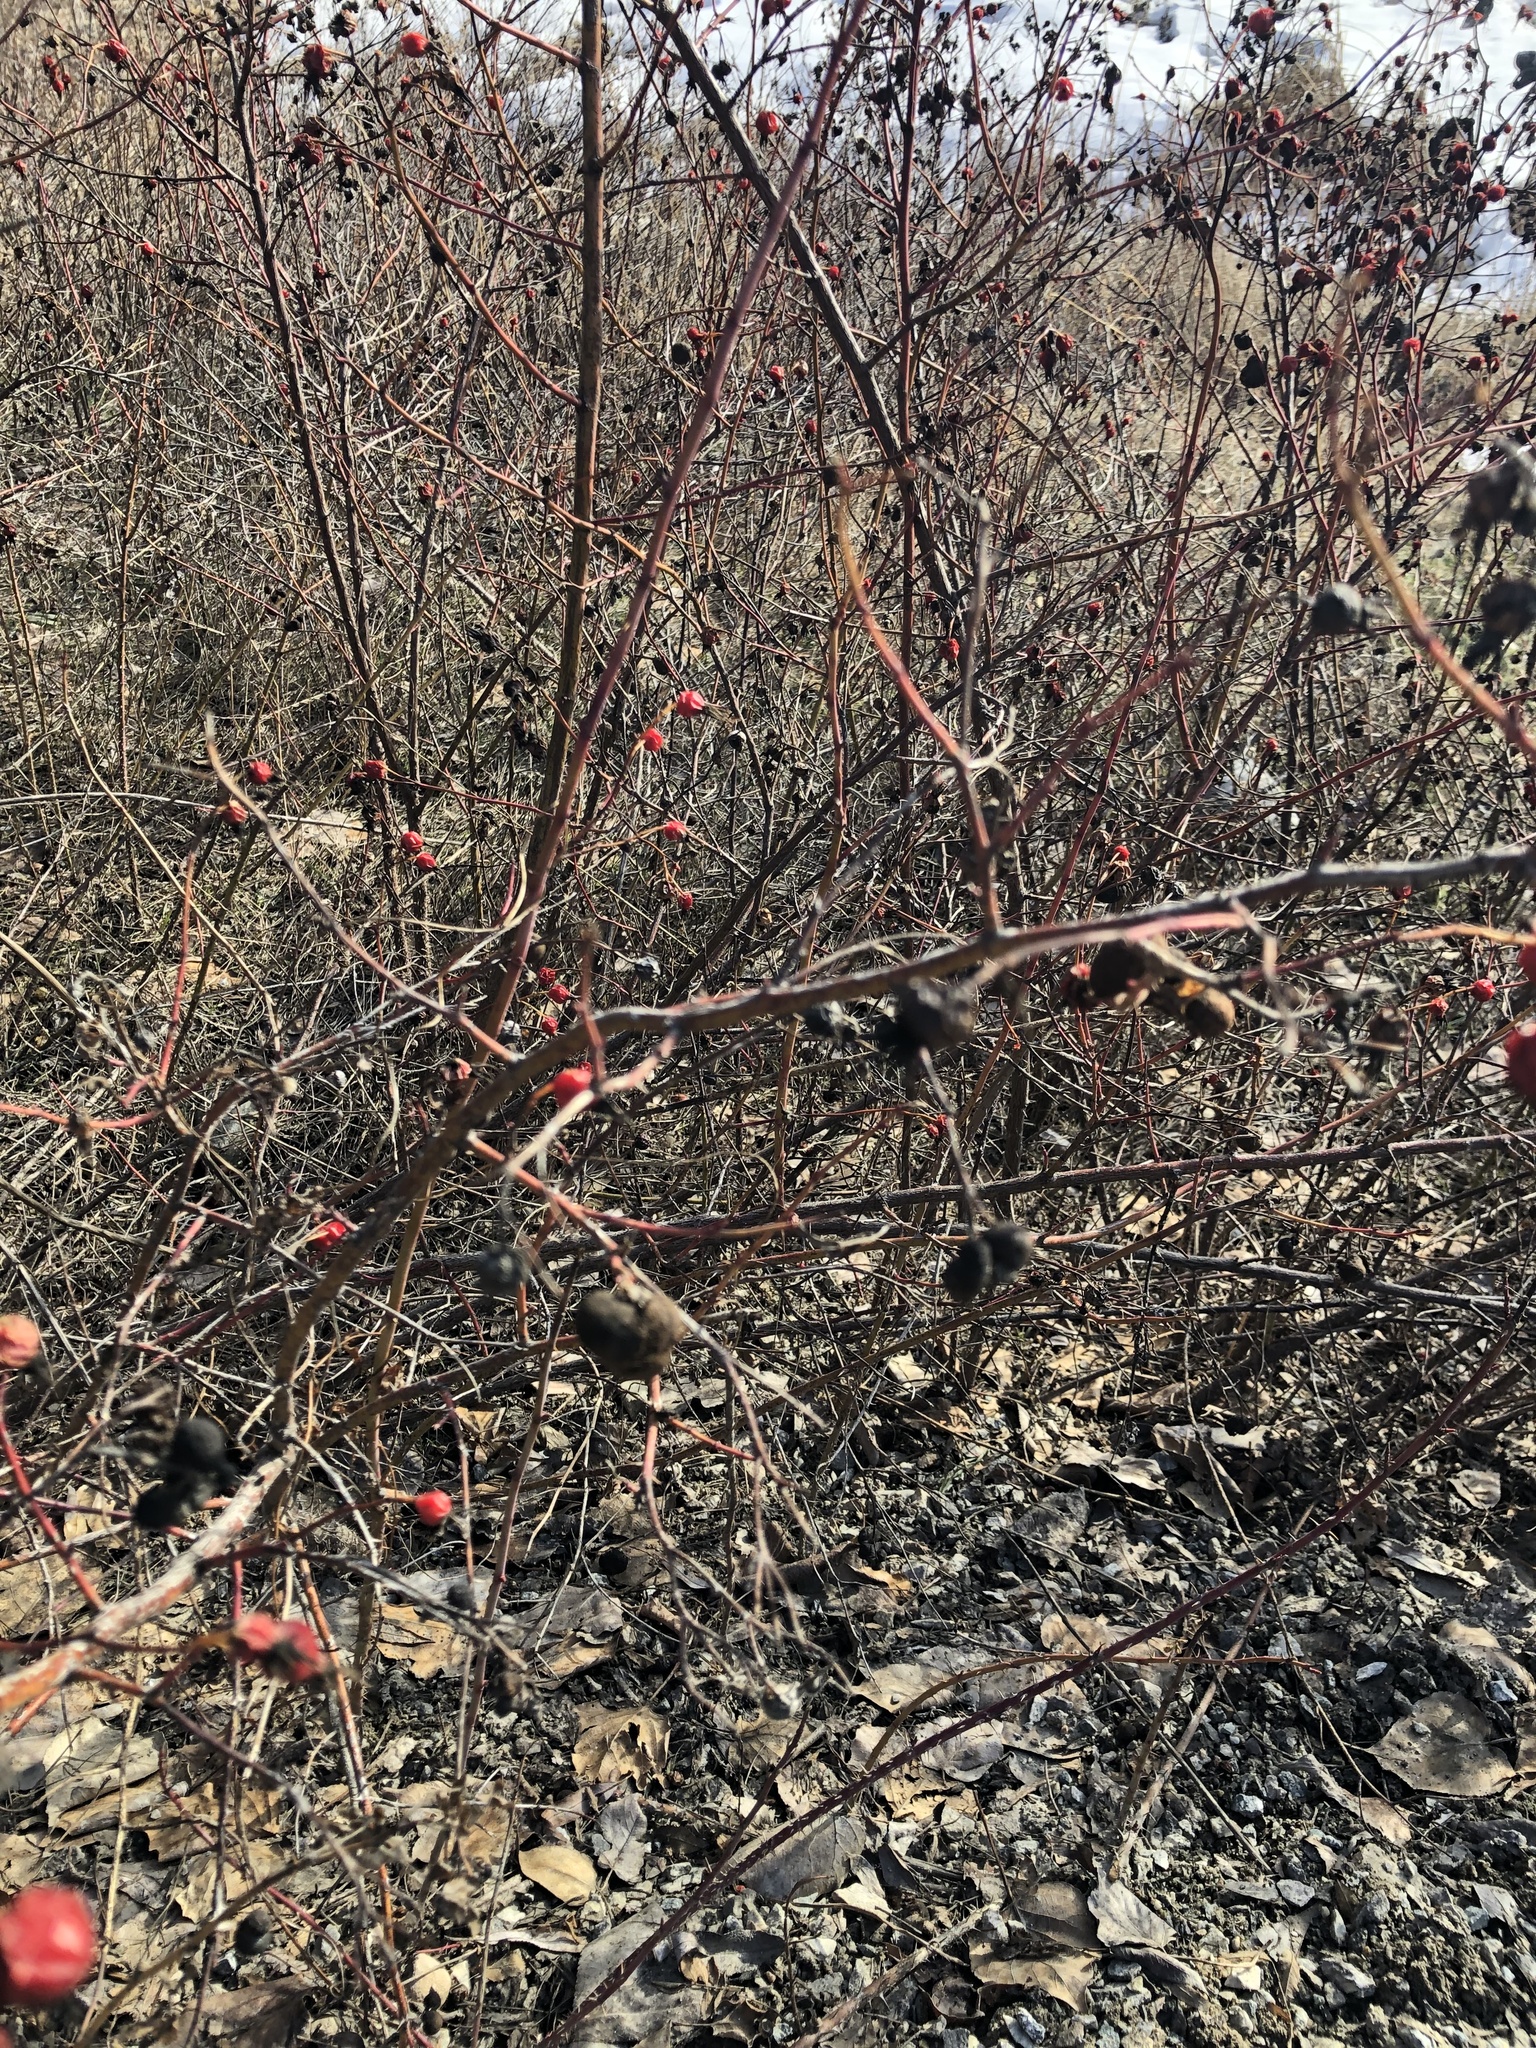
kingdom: Animalia
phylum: Arthropoda
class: Insecta
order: Hymenoptera
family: Cynipidae
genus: Diplolepis
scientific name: Diplolepis variabilis
